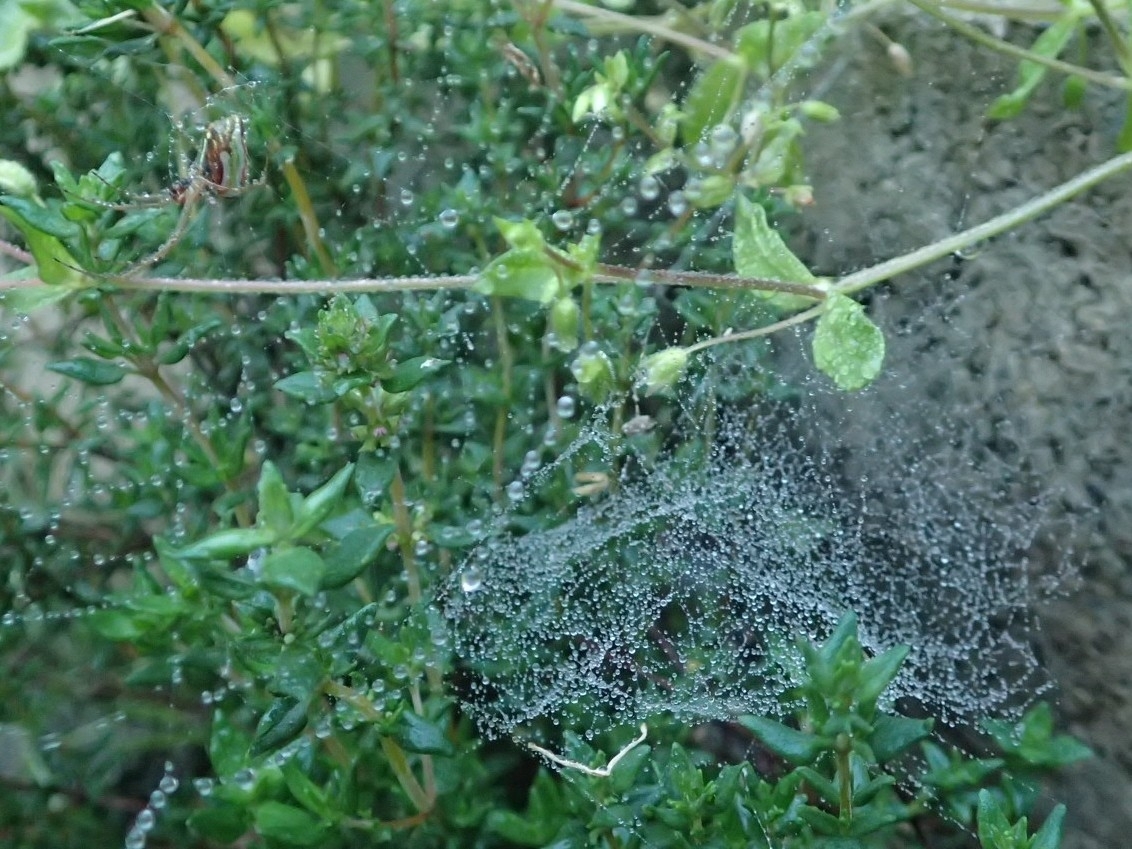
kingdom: Animalia
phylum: Arthropoda
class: Arachnida
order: Araneae
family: Tetragnathidae
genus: Leucauge
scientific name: Leucauge festiva
